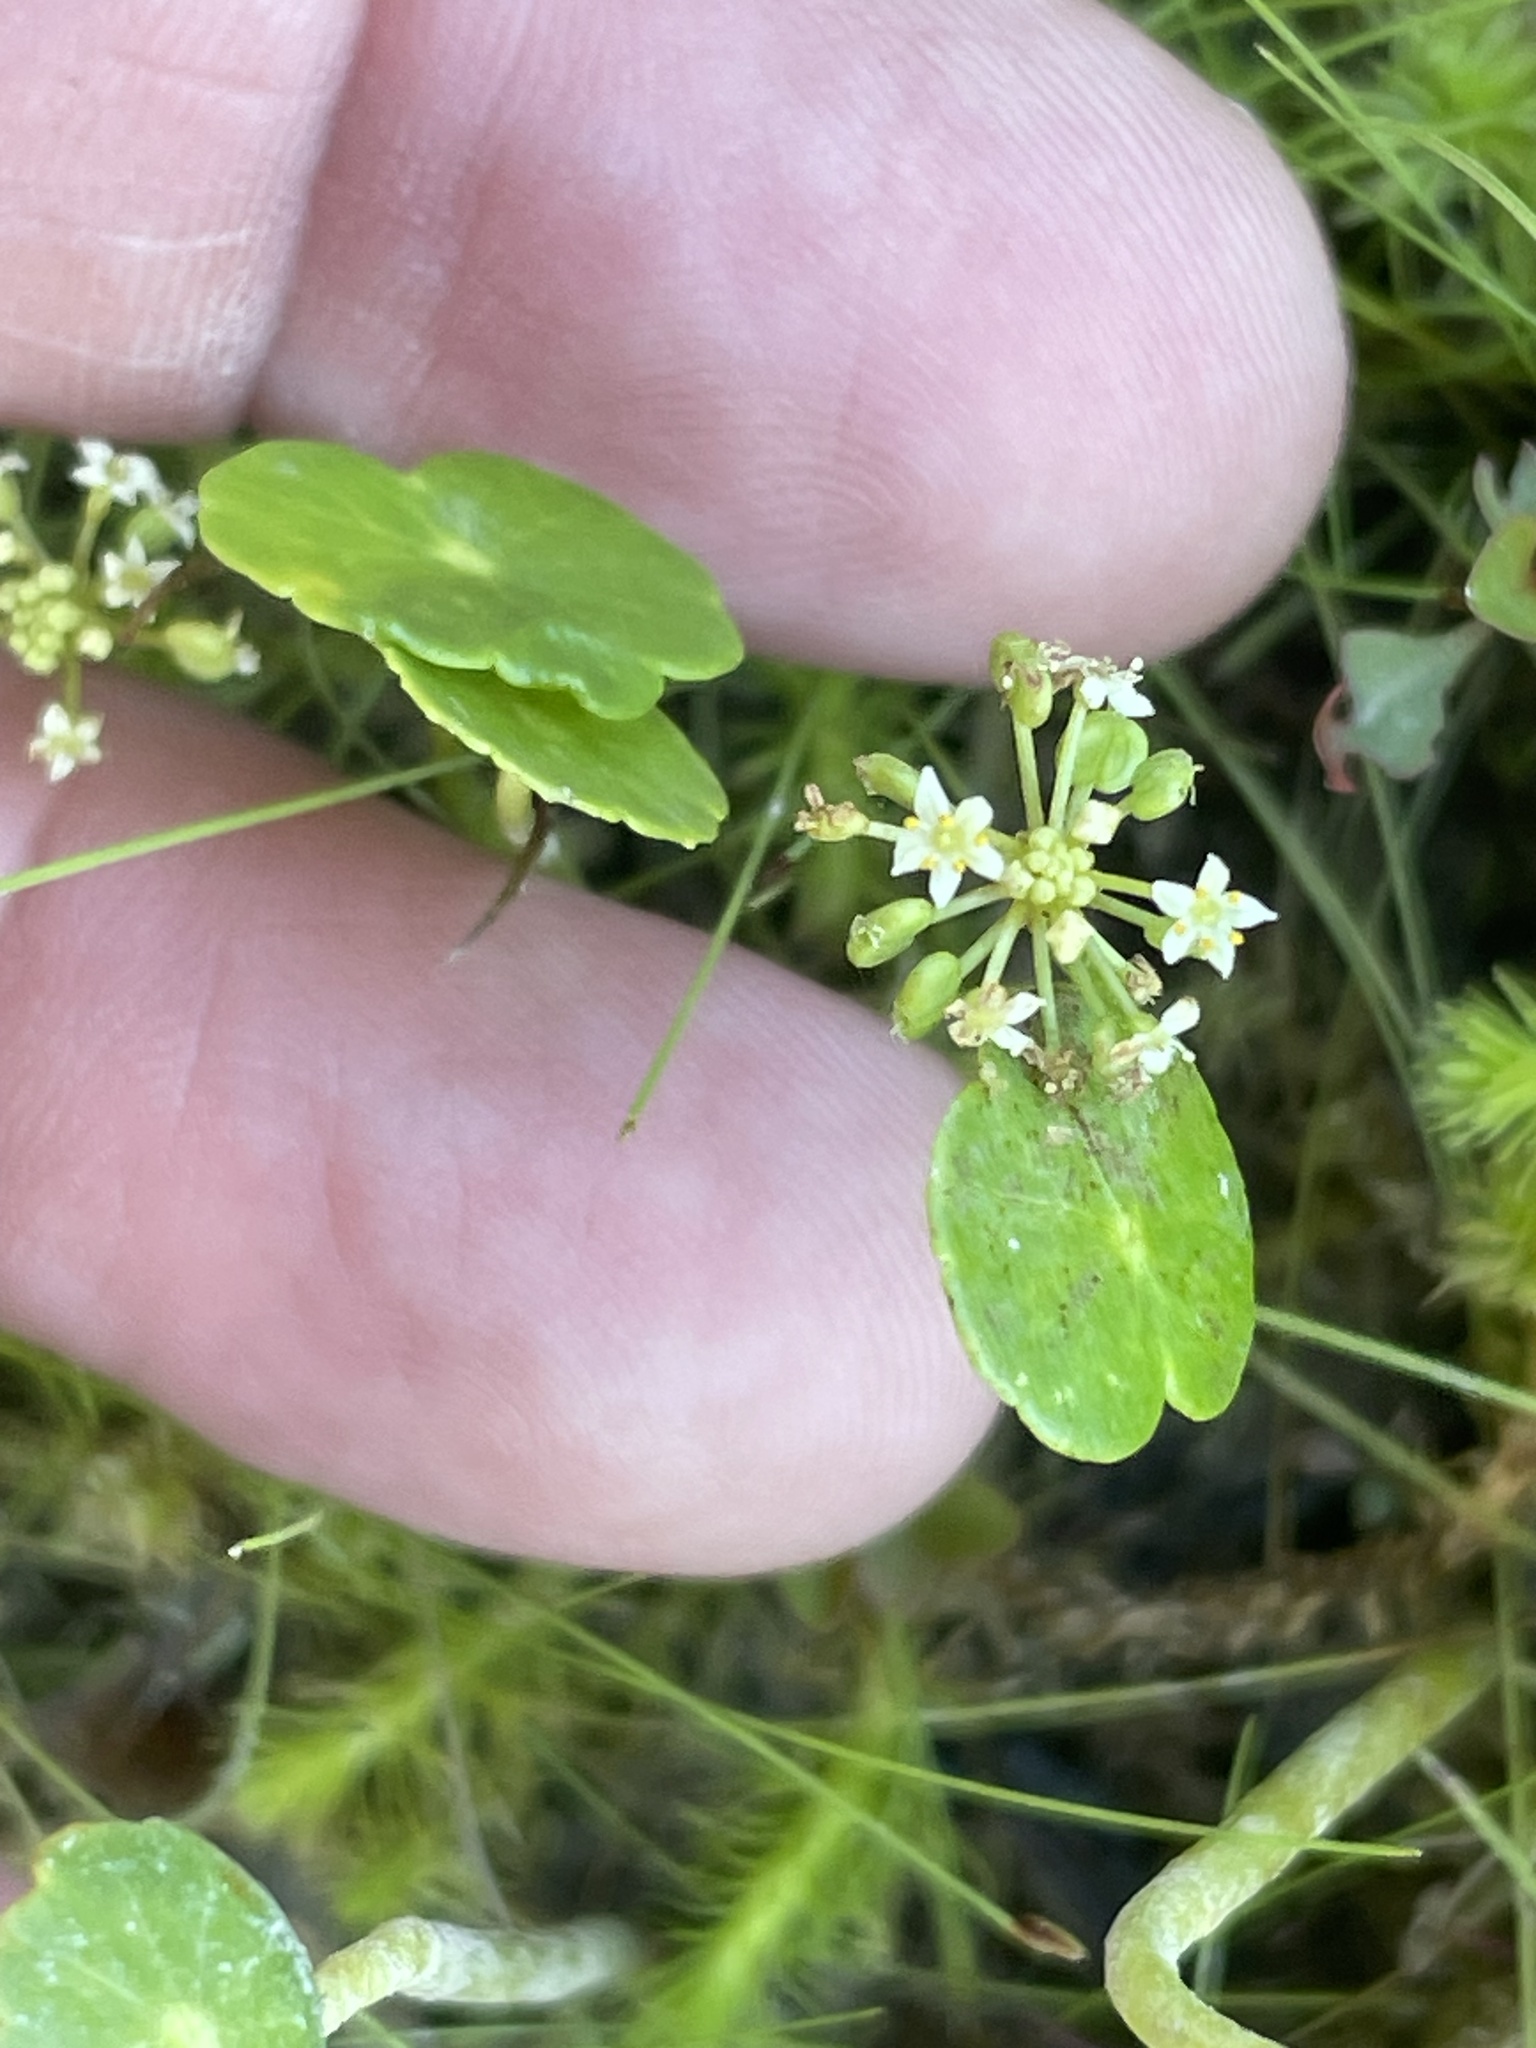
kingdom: Plantae
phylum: Tracheophyta
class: Magnoliopsida
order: Apiales
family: Araliaceae
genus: Hydrocotyle
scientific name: Hydrocotyle umbellata
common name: Water pennywort
